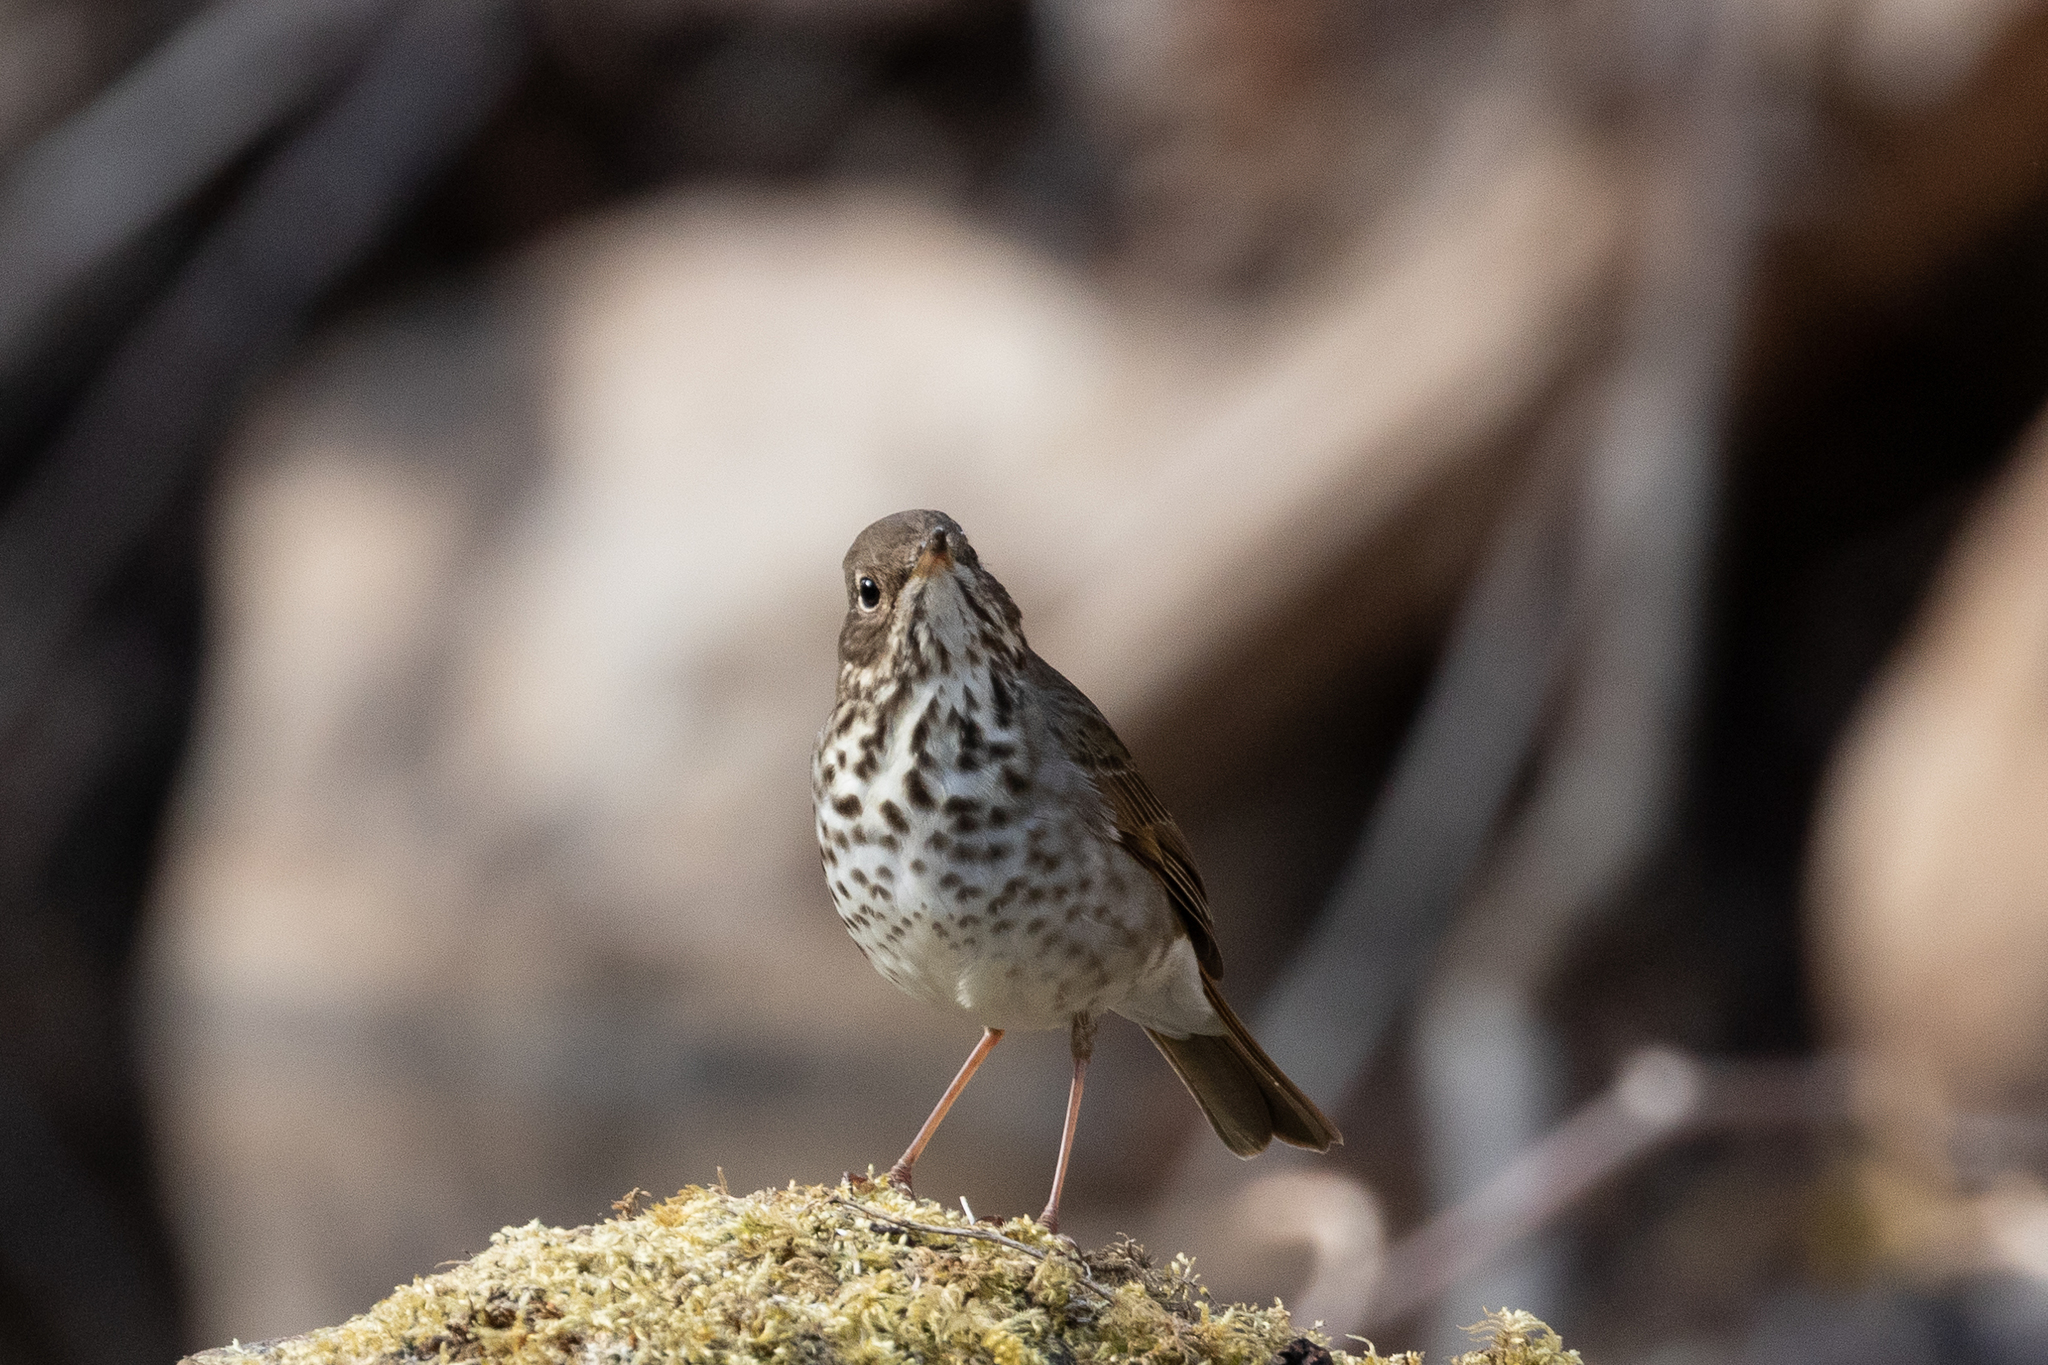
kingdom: Animalia
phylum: Chordata
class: Aves
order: Passeriformes
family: Turdidae
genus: Catharus
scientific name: Catharus guttatus
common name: Hermit thrush
